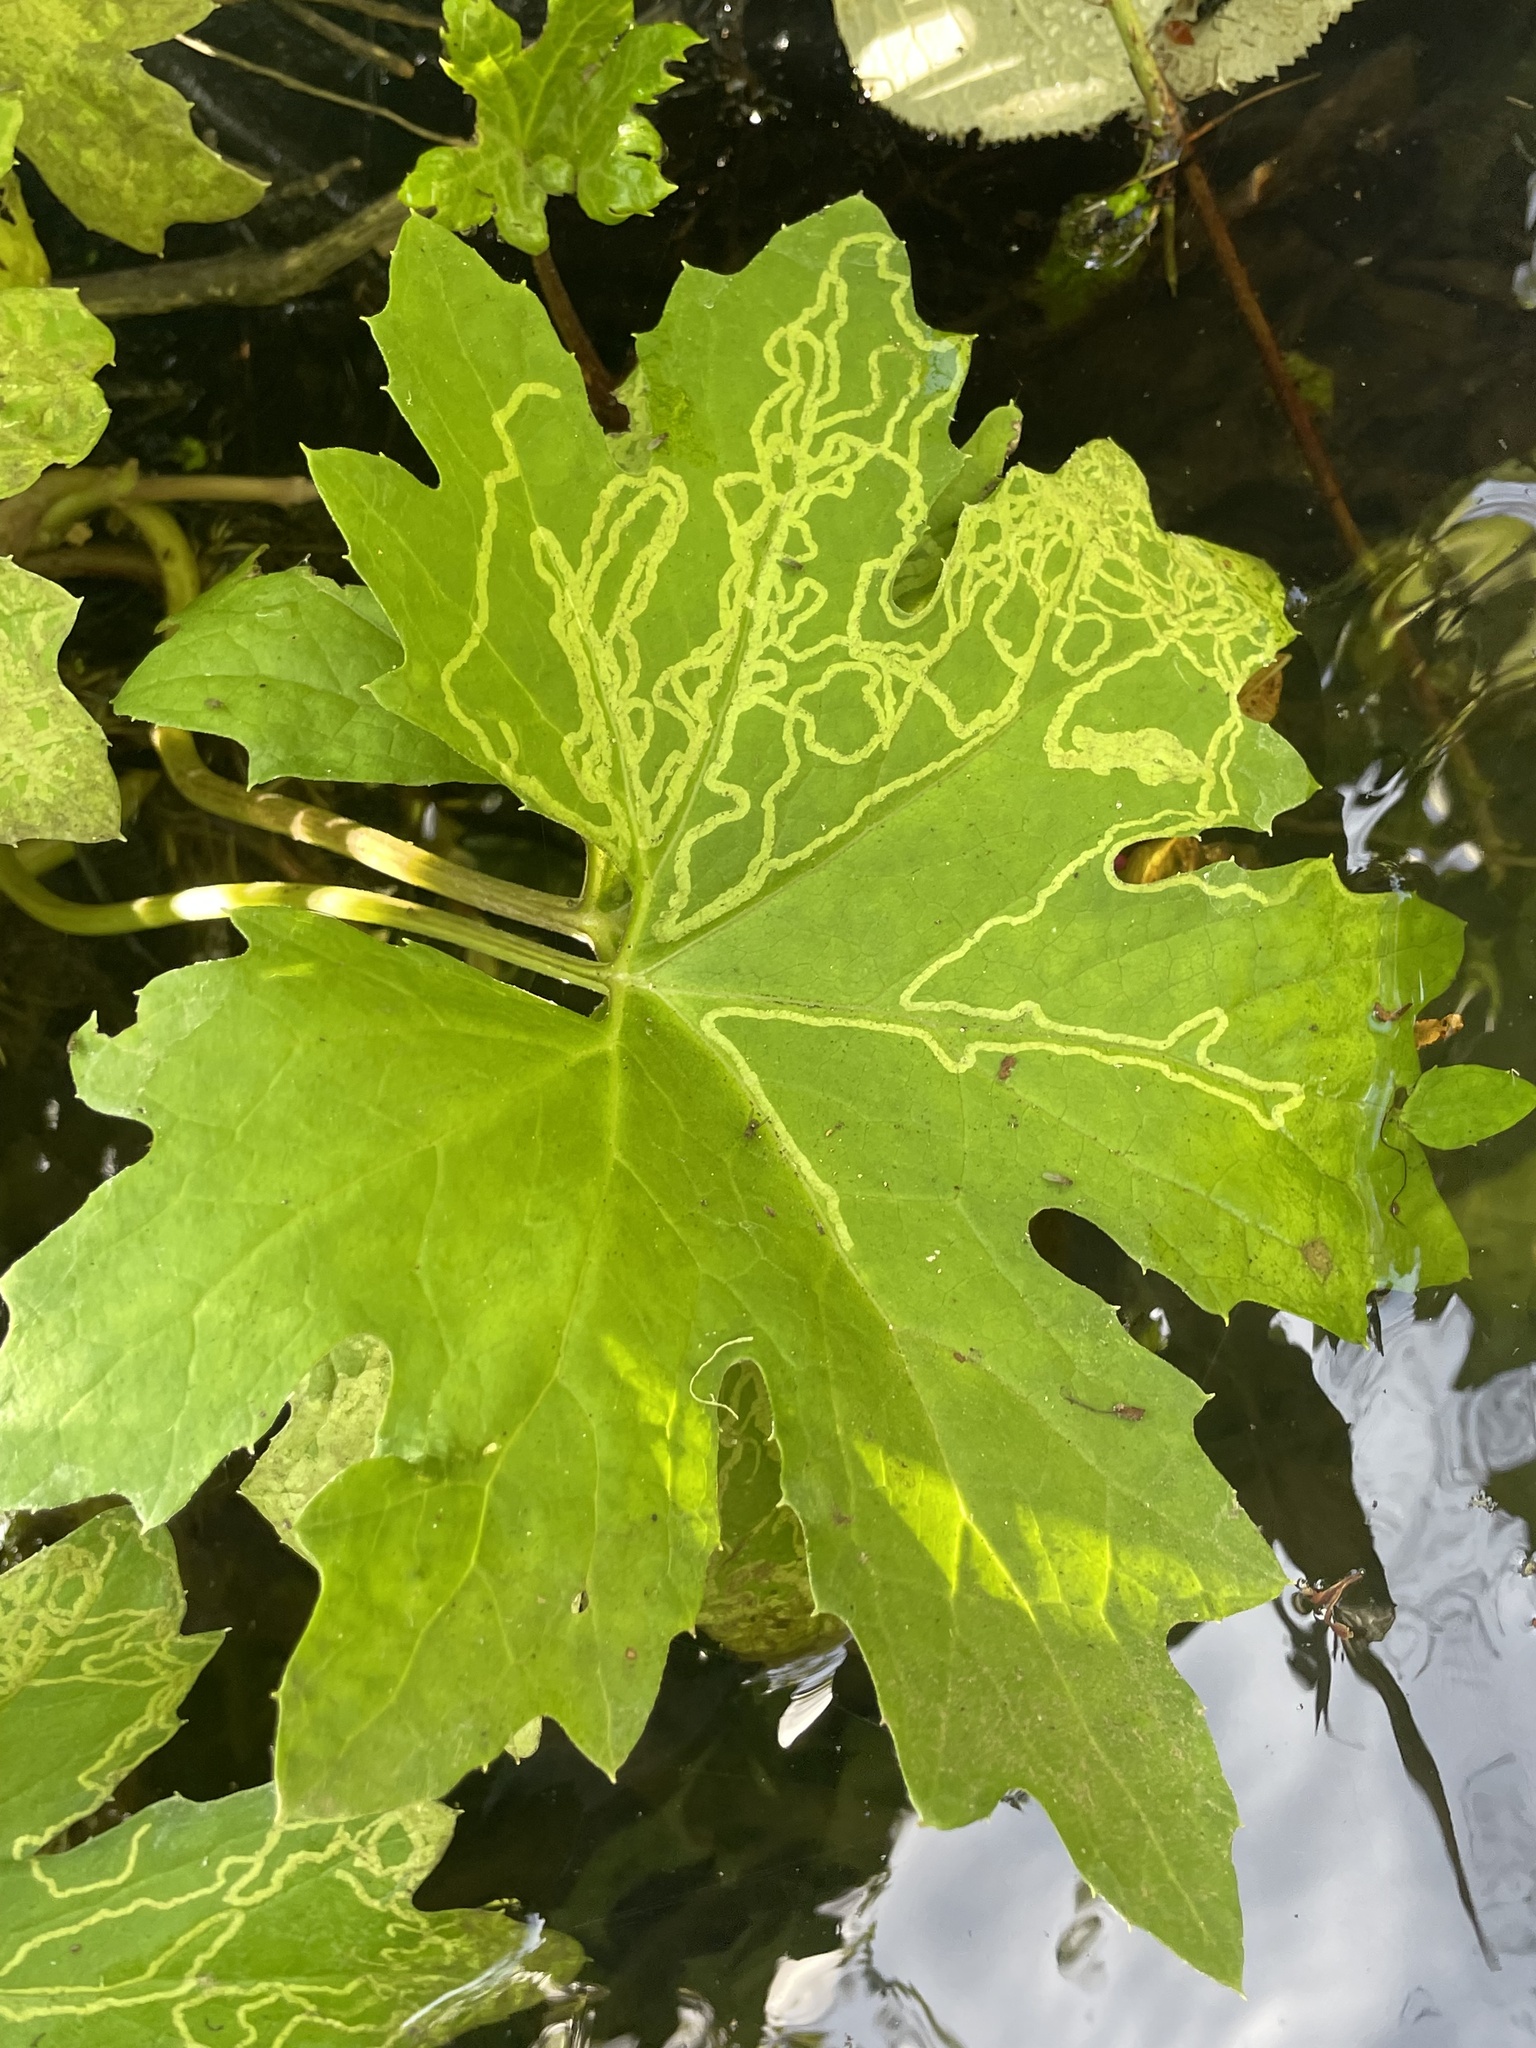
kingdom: Plantae
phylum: Tracheophyta
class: Magnoliopsida
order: Asterales
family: Asteraceae
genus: Petasites
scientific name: Petasites frigidus
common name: Arctic butterbur
